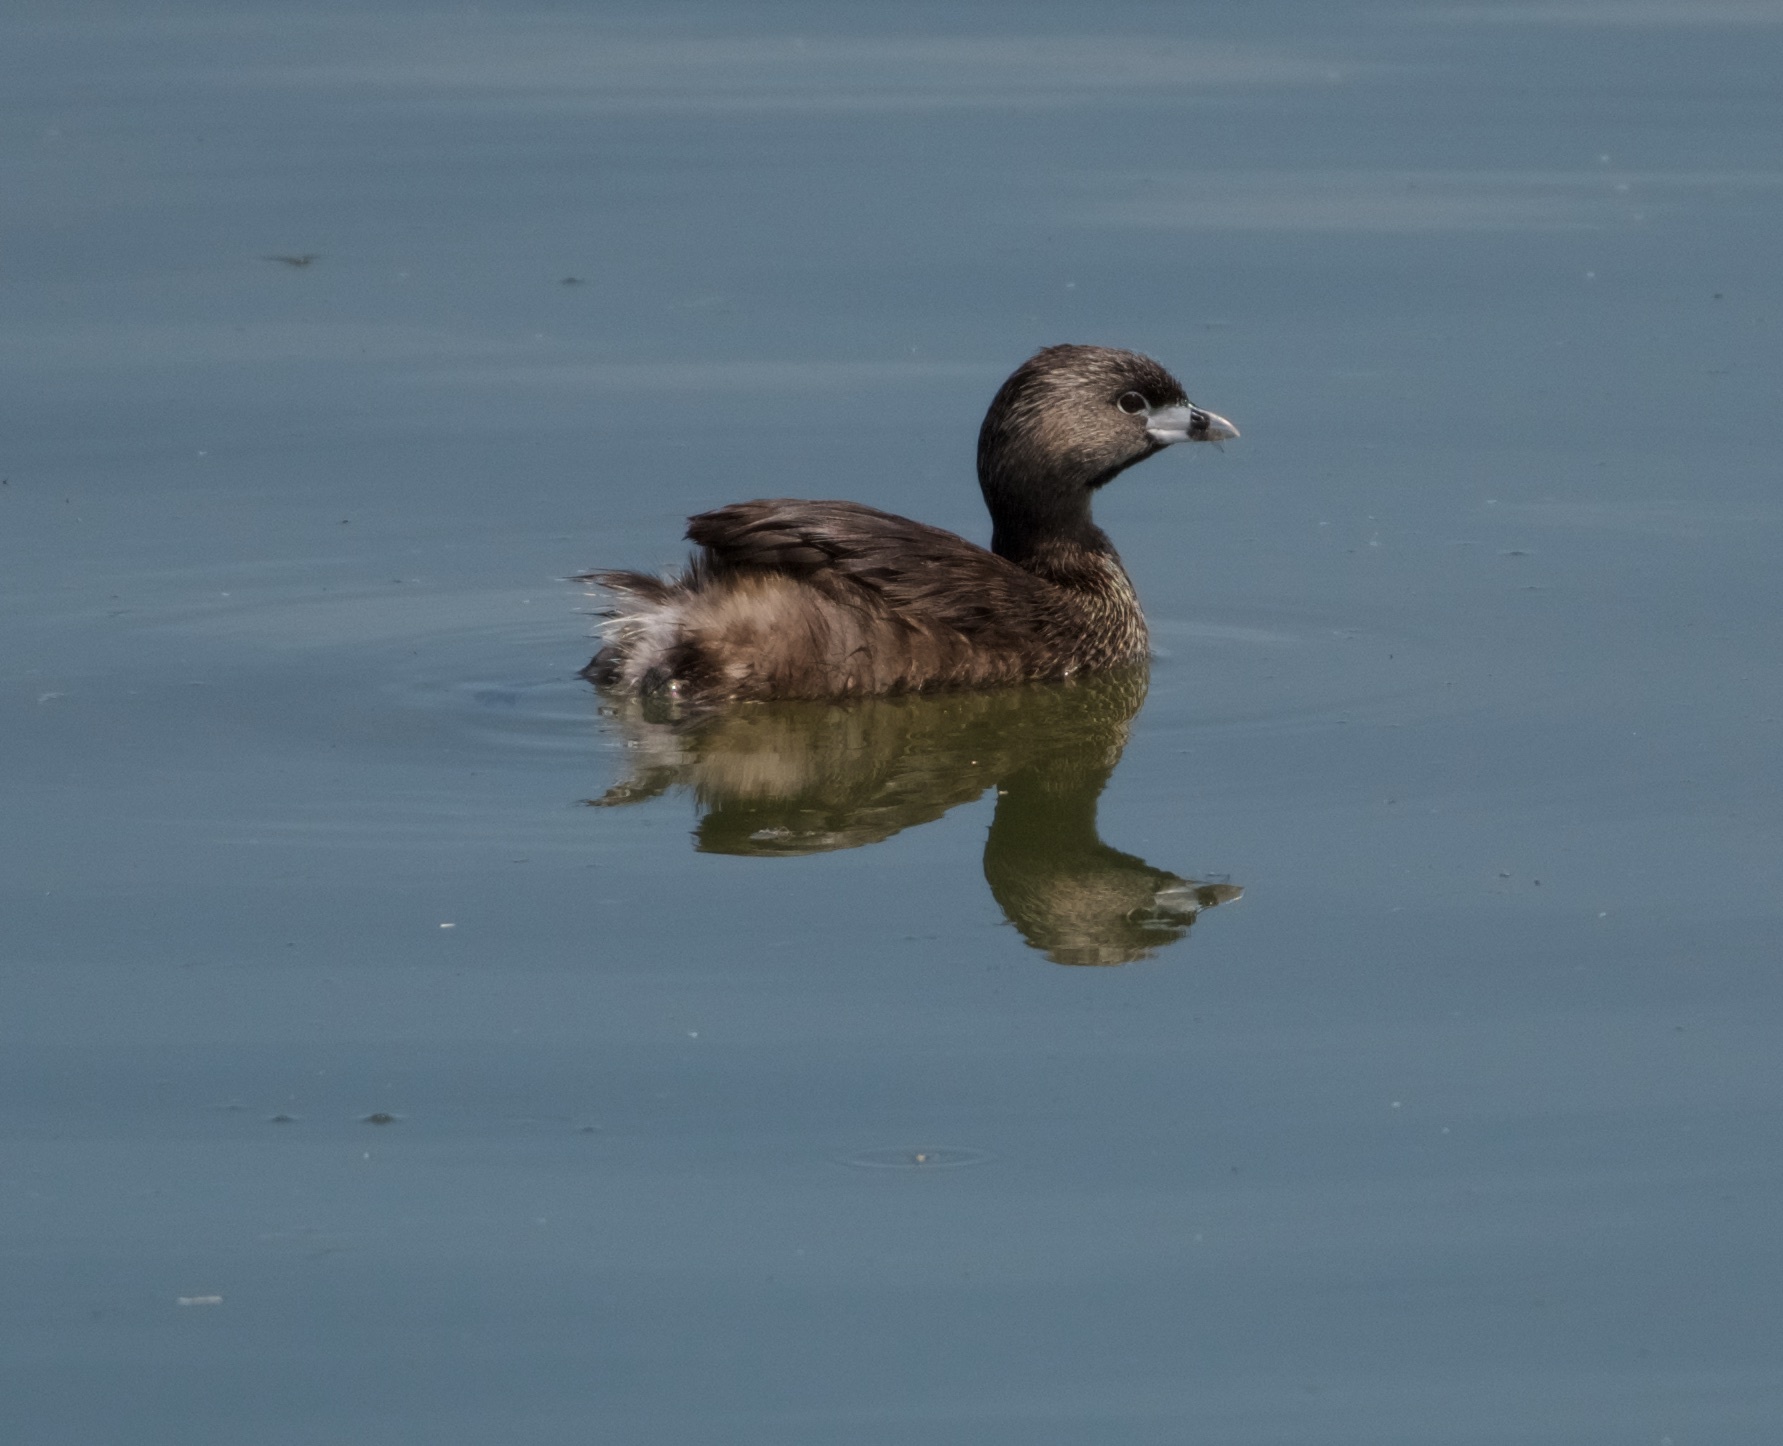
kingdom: Animalia
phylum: Chordata
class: Aves
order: Podicipediformes
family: Podicipedidae
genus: Podilymbus
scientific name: Podilymbus podiceps
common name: Pied-billed grebe
